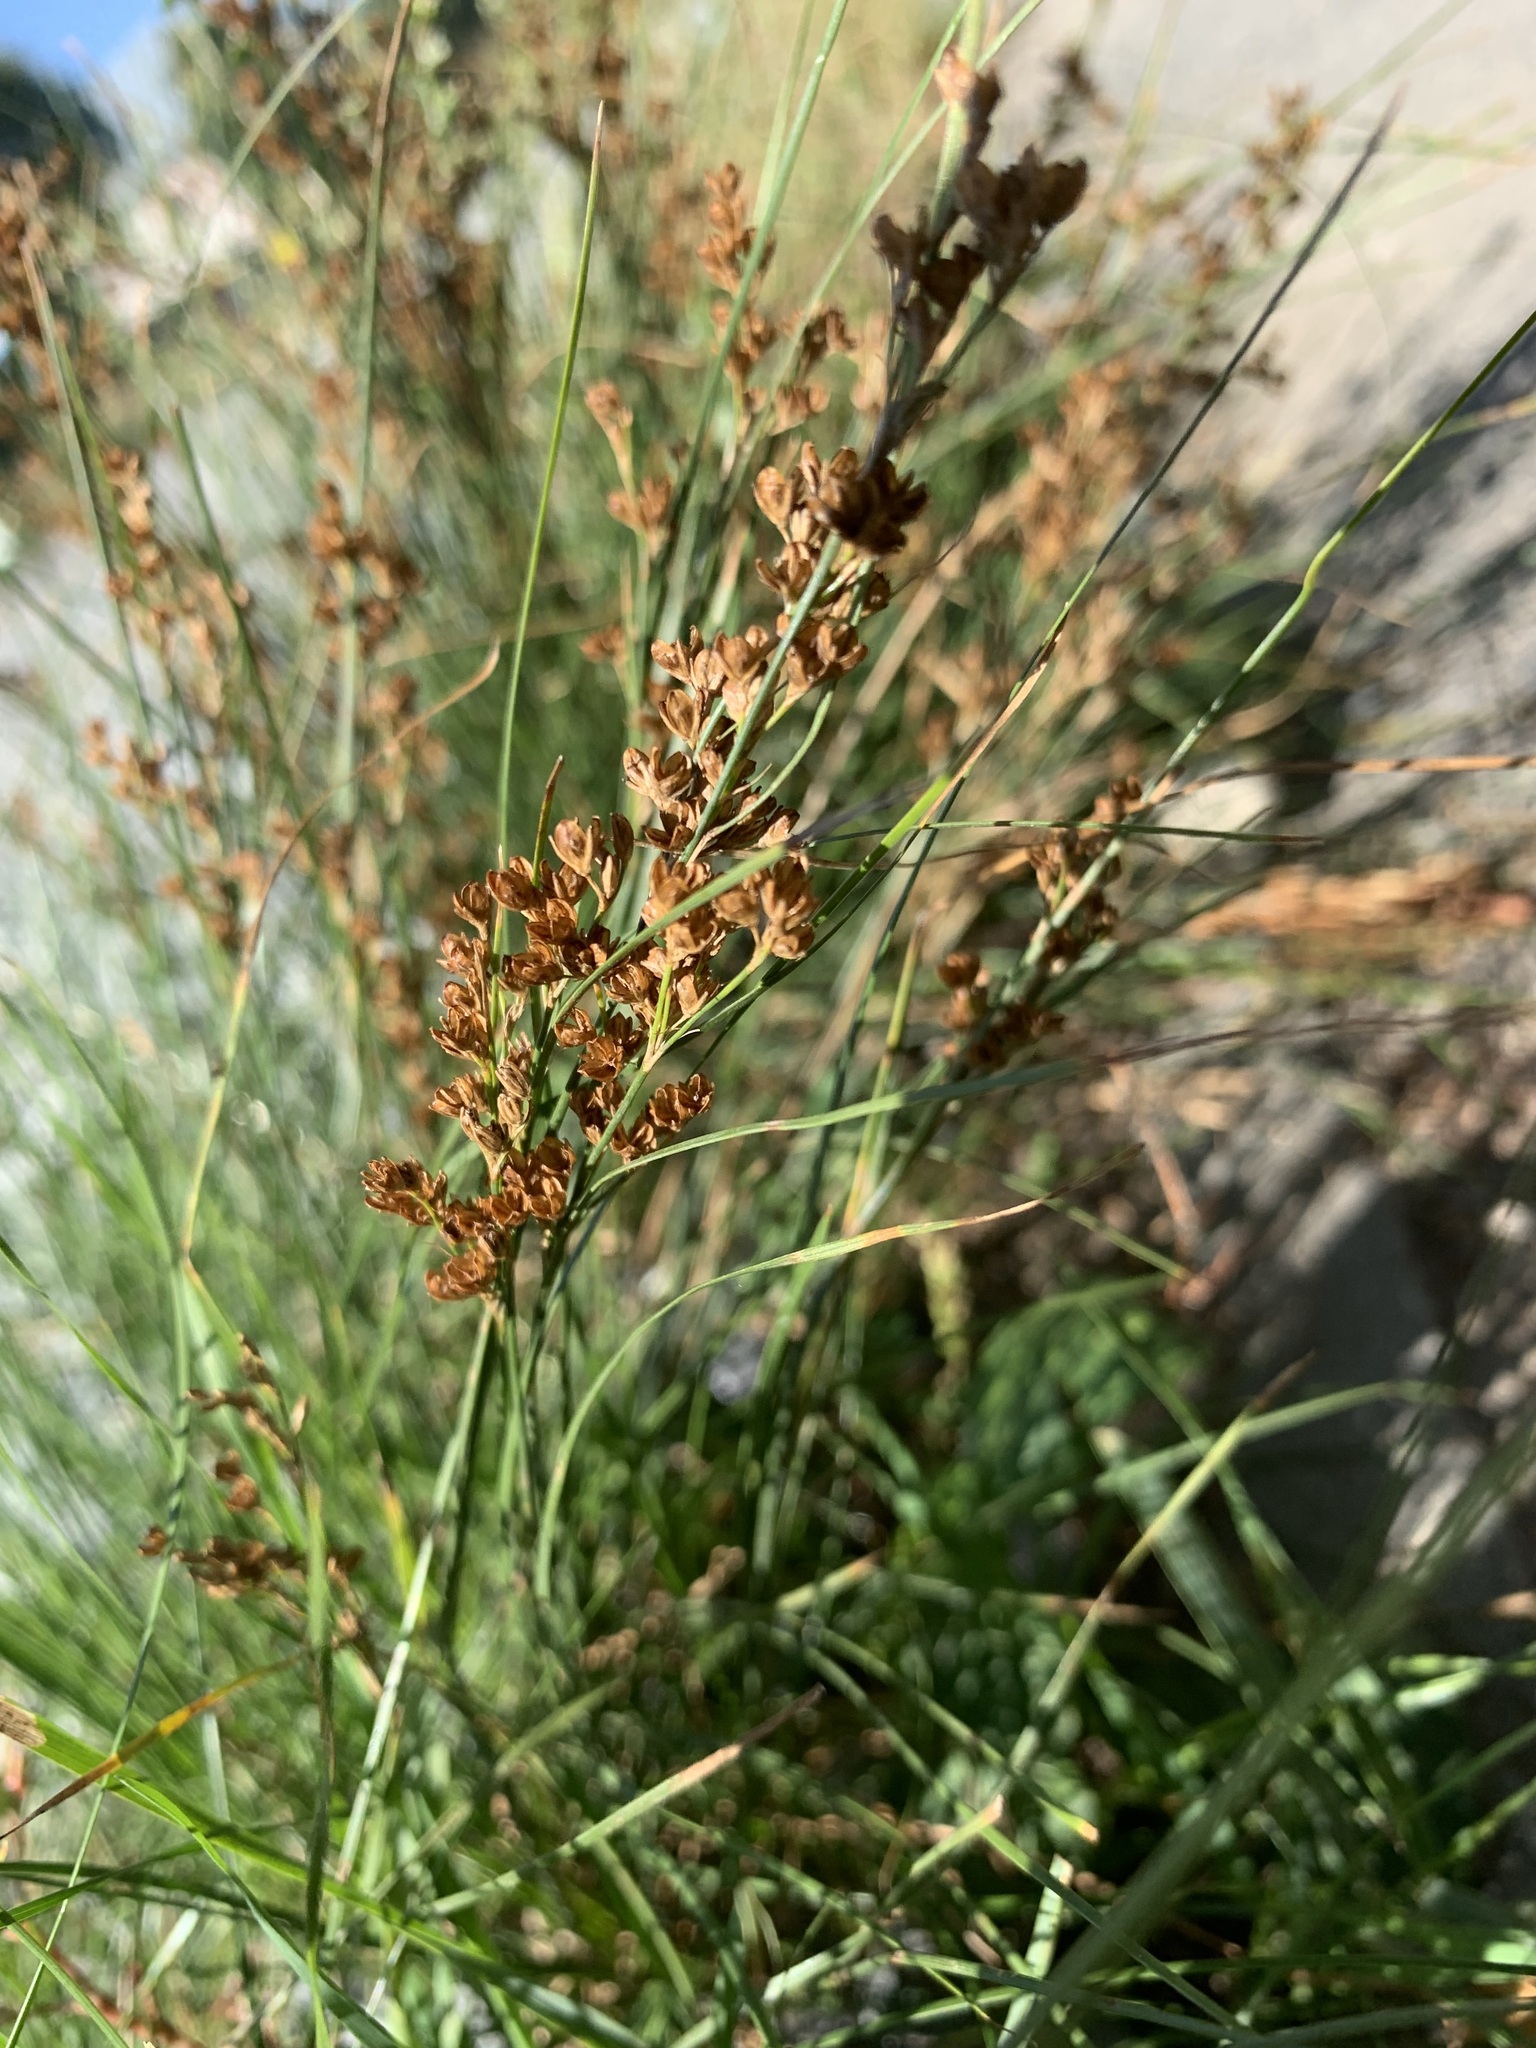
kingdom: Plantae
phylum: Tracheophyta
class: Liliopsida
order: Poales
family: Juncaceae
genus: Juncus
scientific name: Juncus compressus
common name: Round-fruited rush
